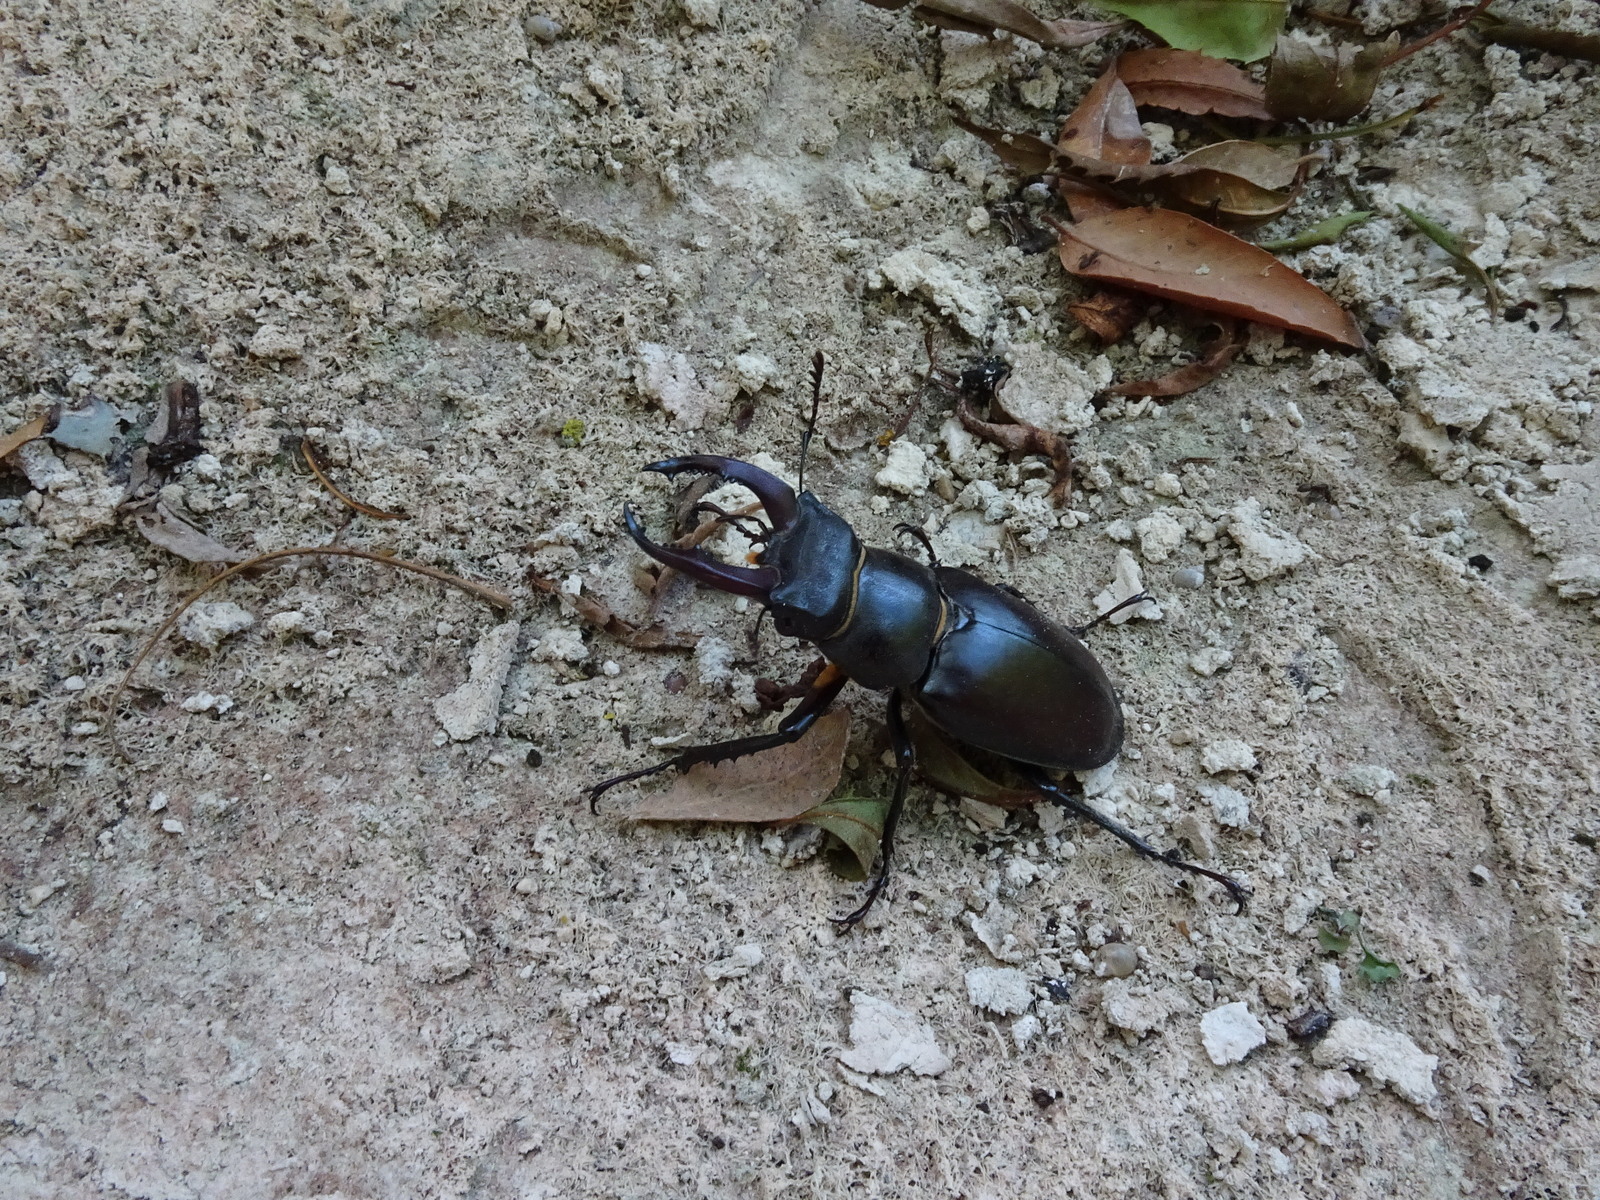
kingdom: Animalia
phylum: Arthropoda
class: Insecta
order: Coleoptera
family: Lucanidae
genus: Lucanus
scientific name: Lucanus cervus
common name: Stag beetle
